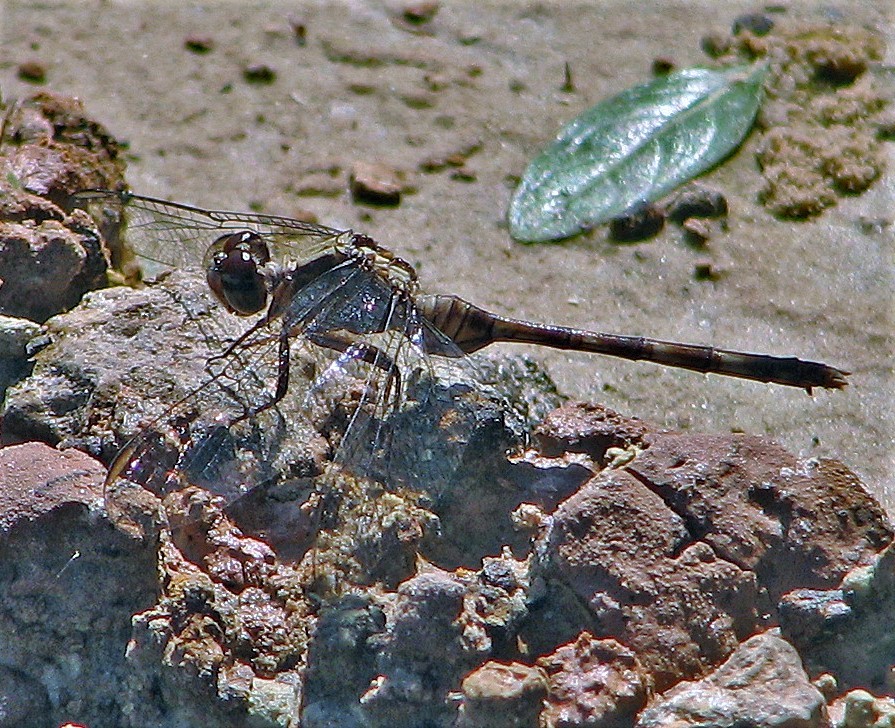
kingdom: Animalia
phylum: Arthropoda
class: Insecta
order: Odonata
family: Libellulidae
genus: Erythemis
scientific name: Erythemis plebeja
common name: Pin-tailed pondhawk
